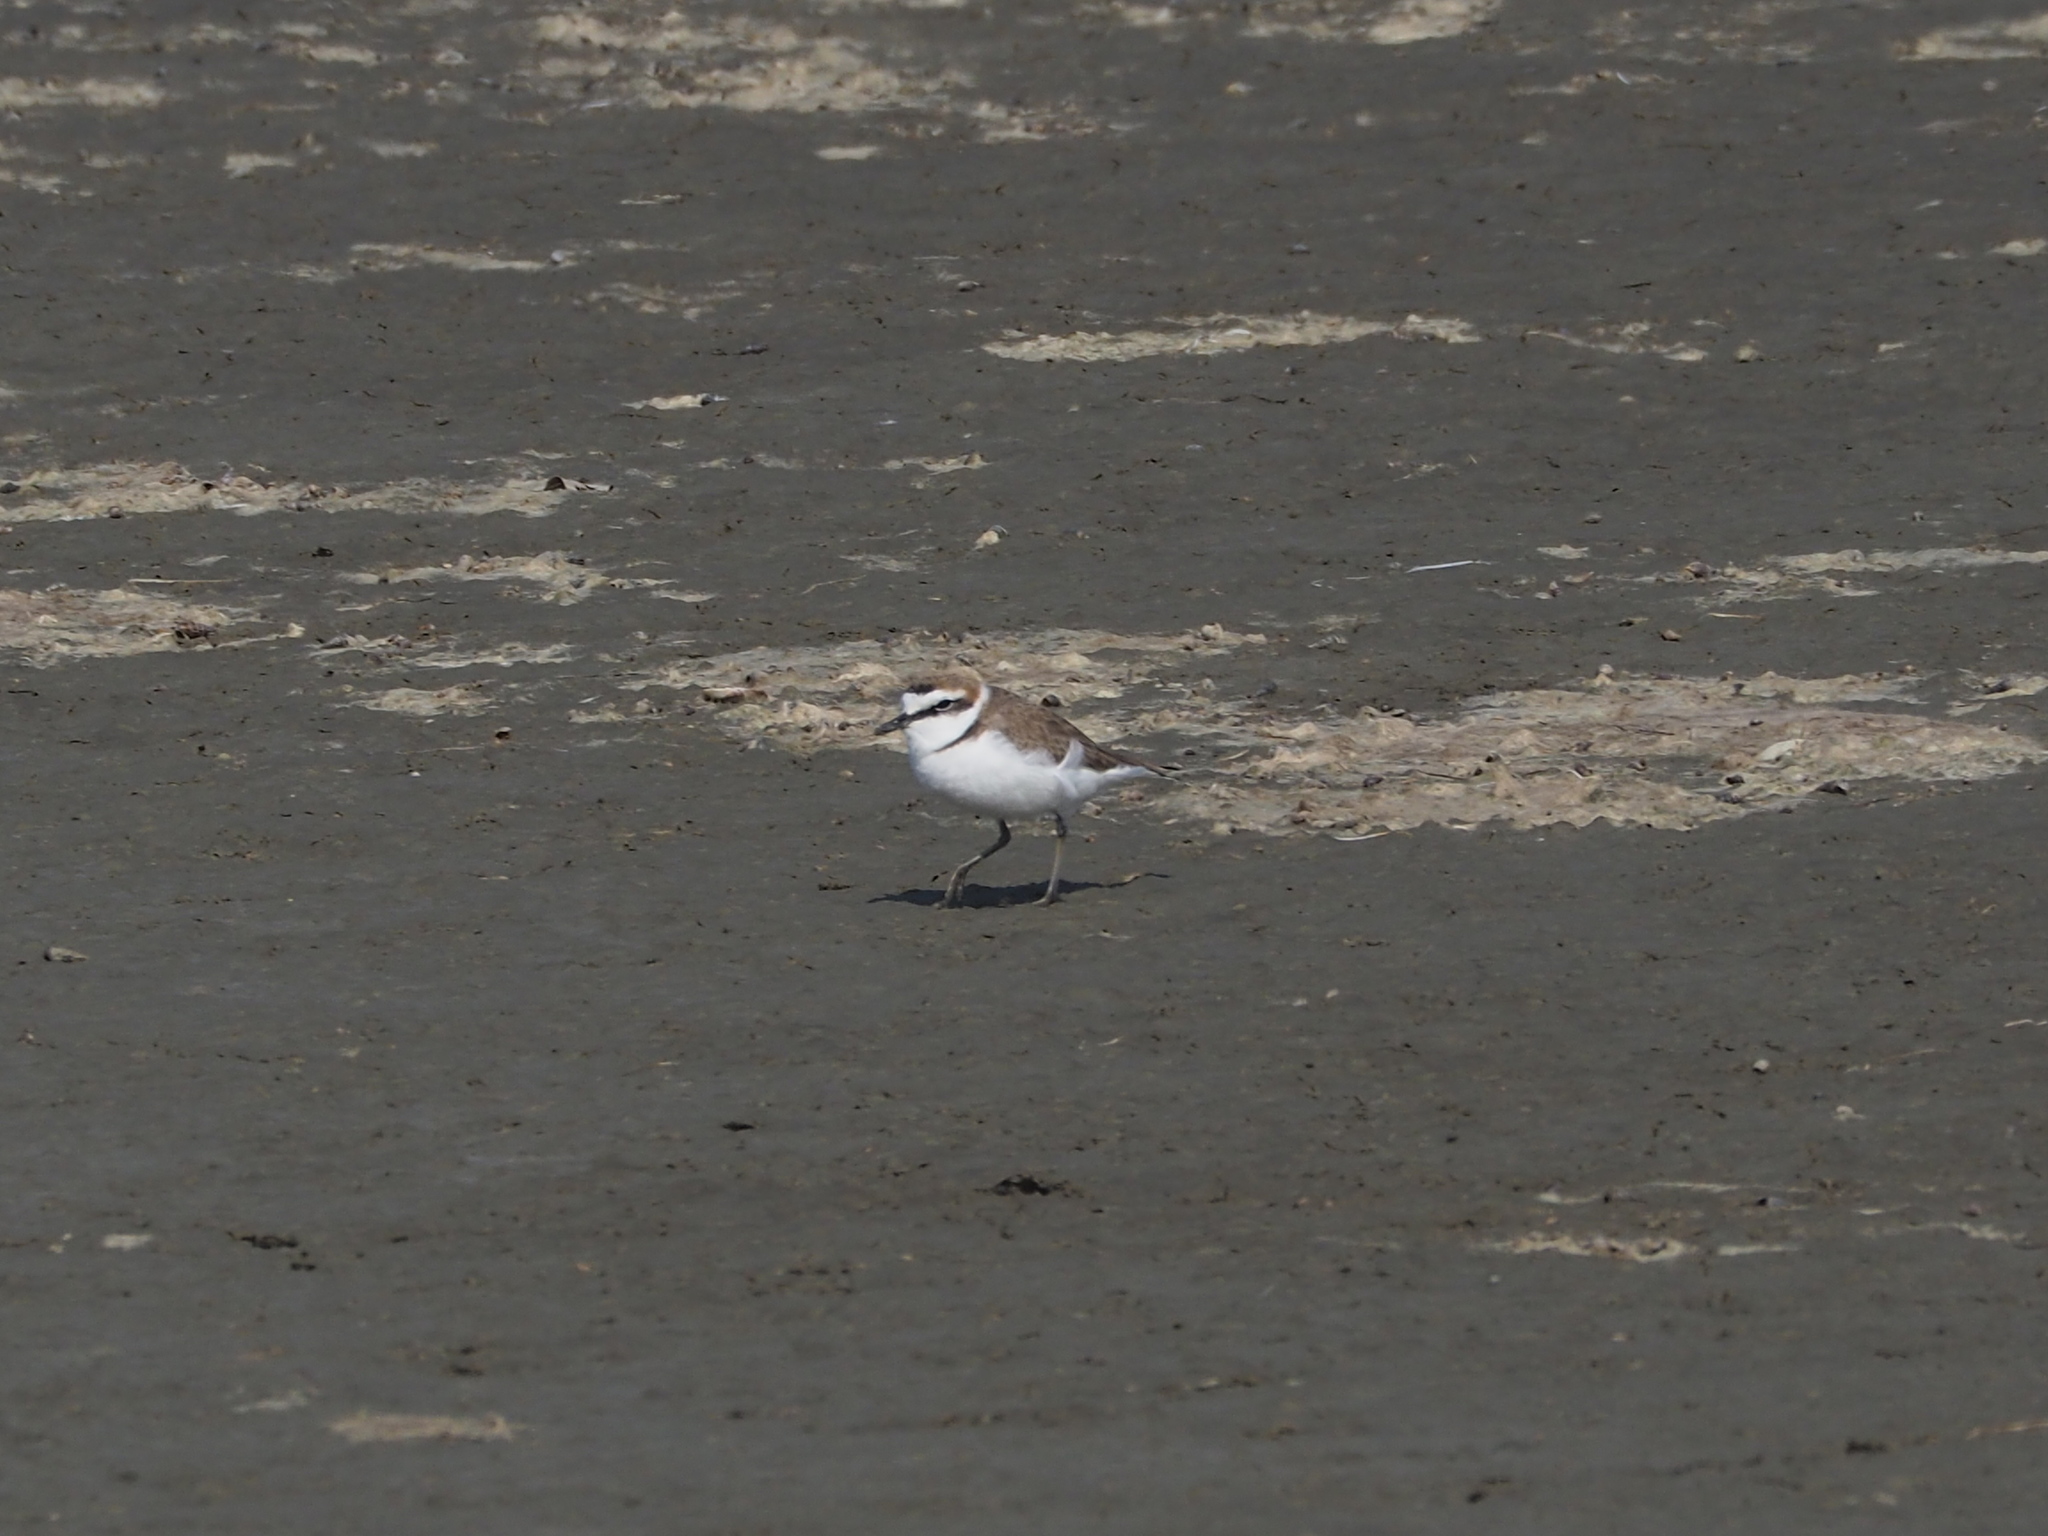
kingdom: Animalia
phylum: Chordata
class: Aves
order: Charadriiformes
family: Charadriidae
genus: Charadrius
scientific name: Charadrius alexandrinus
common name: Kentish plover
